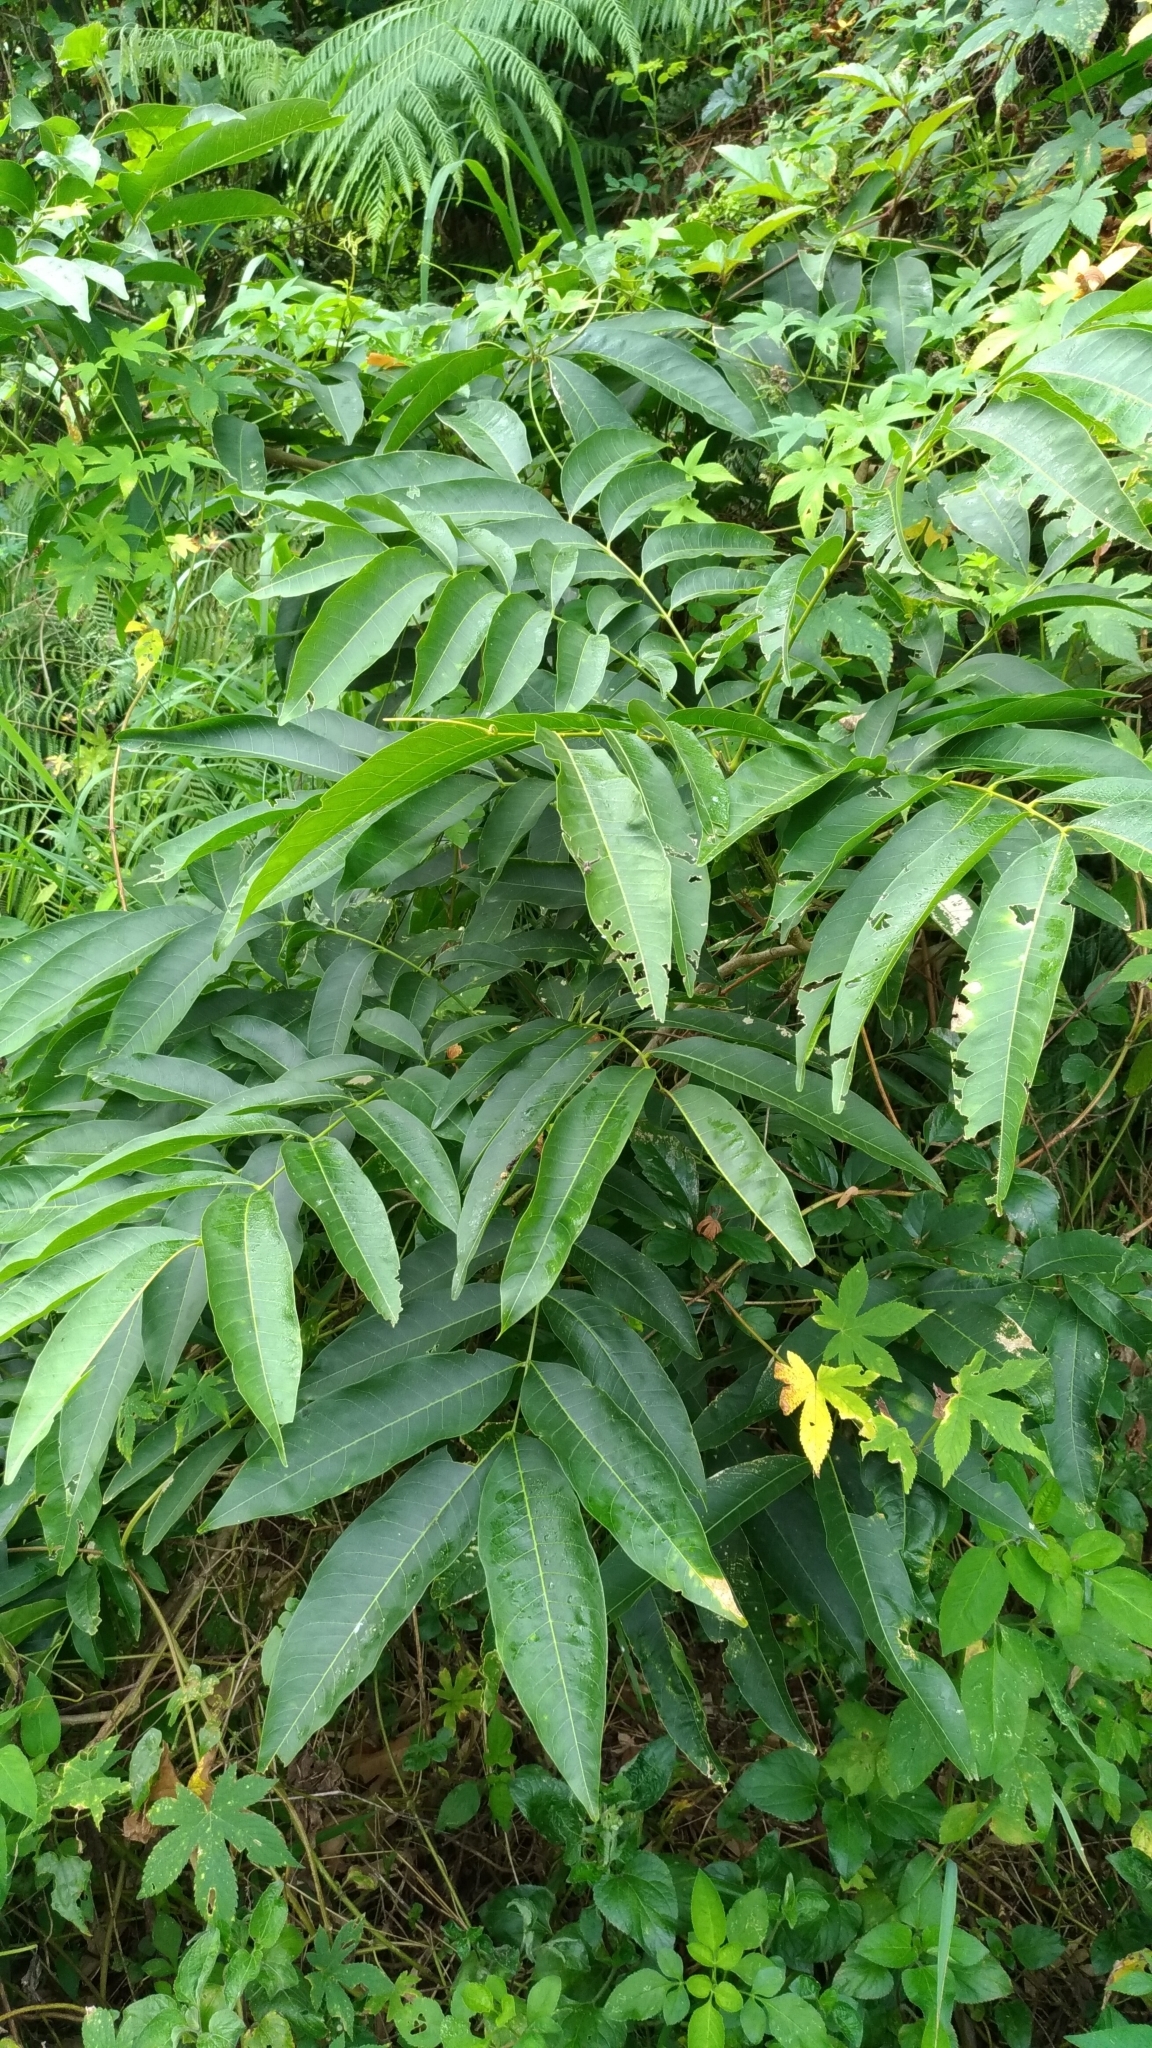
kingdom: Plantae
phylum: Tracheophyta
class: Magnoliopsida
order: Sapindales
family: Sapindaceae
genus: Sapindus
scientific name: Sapindus mukorossi
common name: Chinese soapberry
